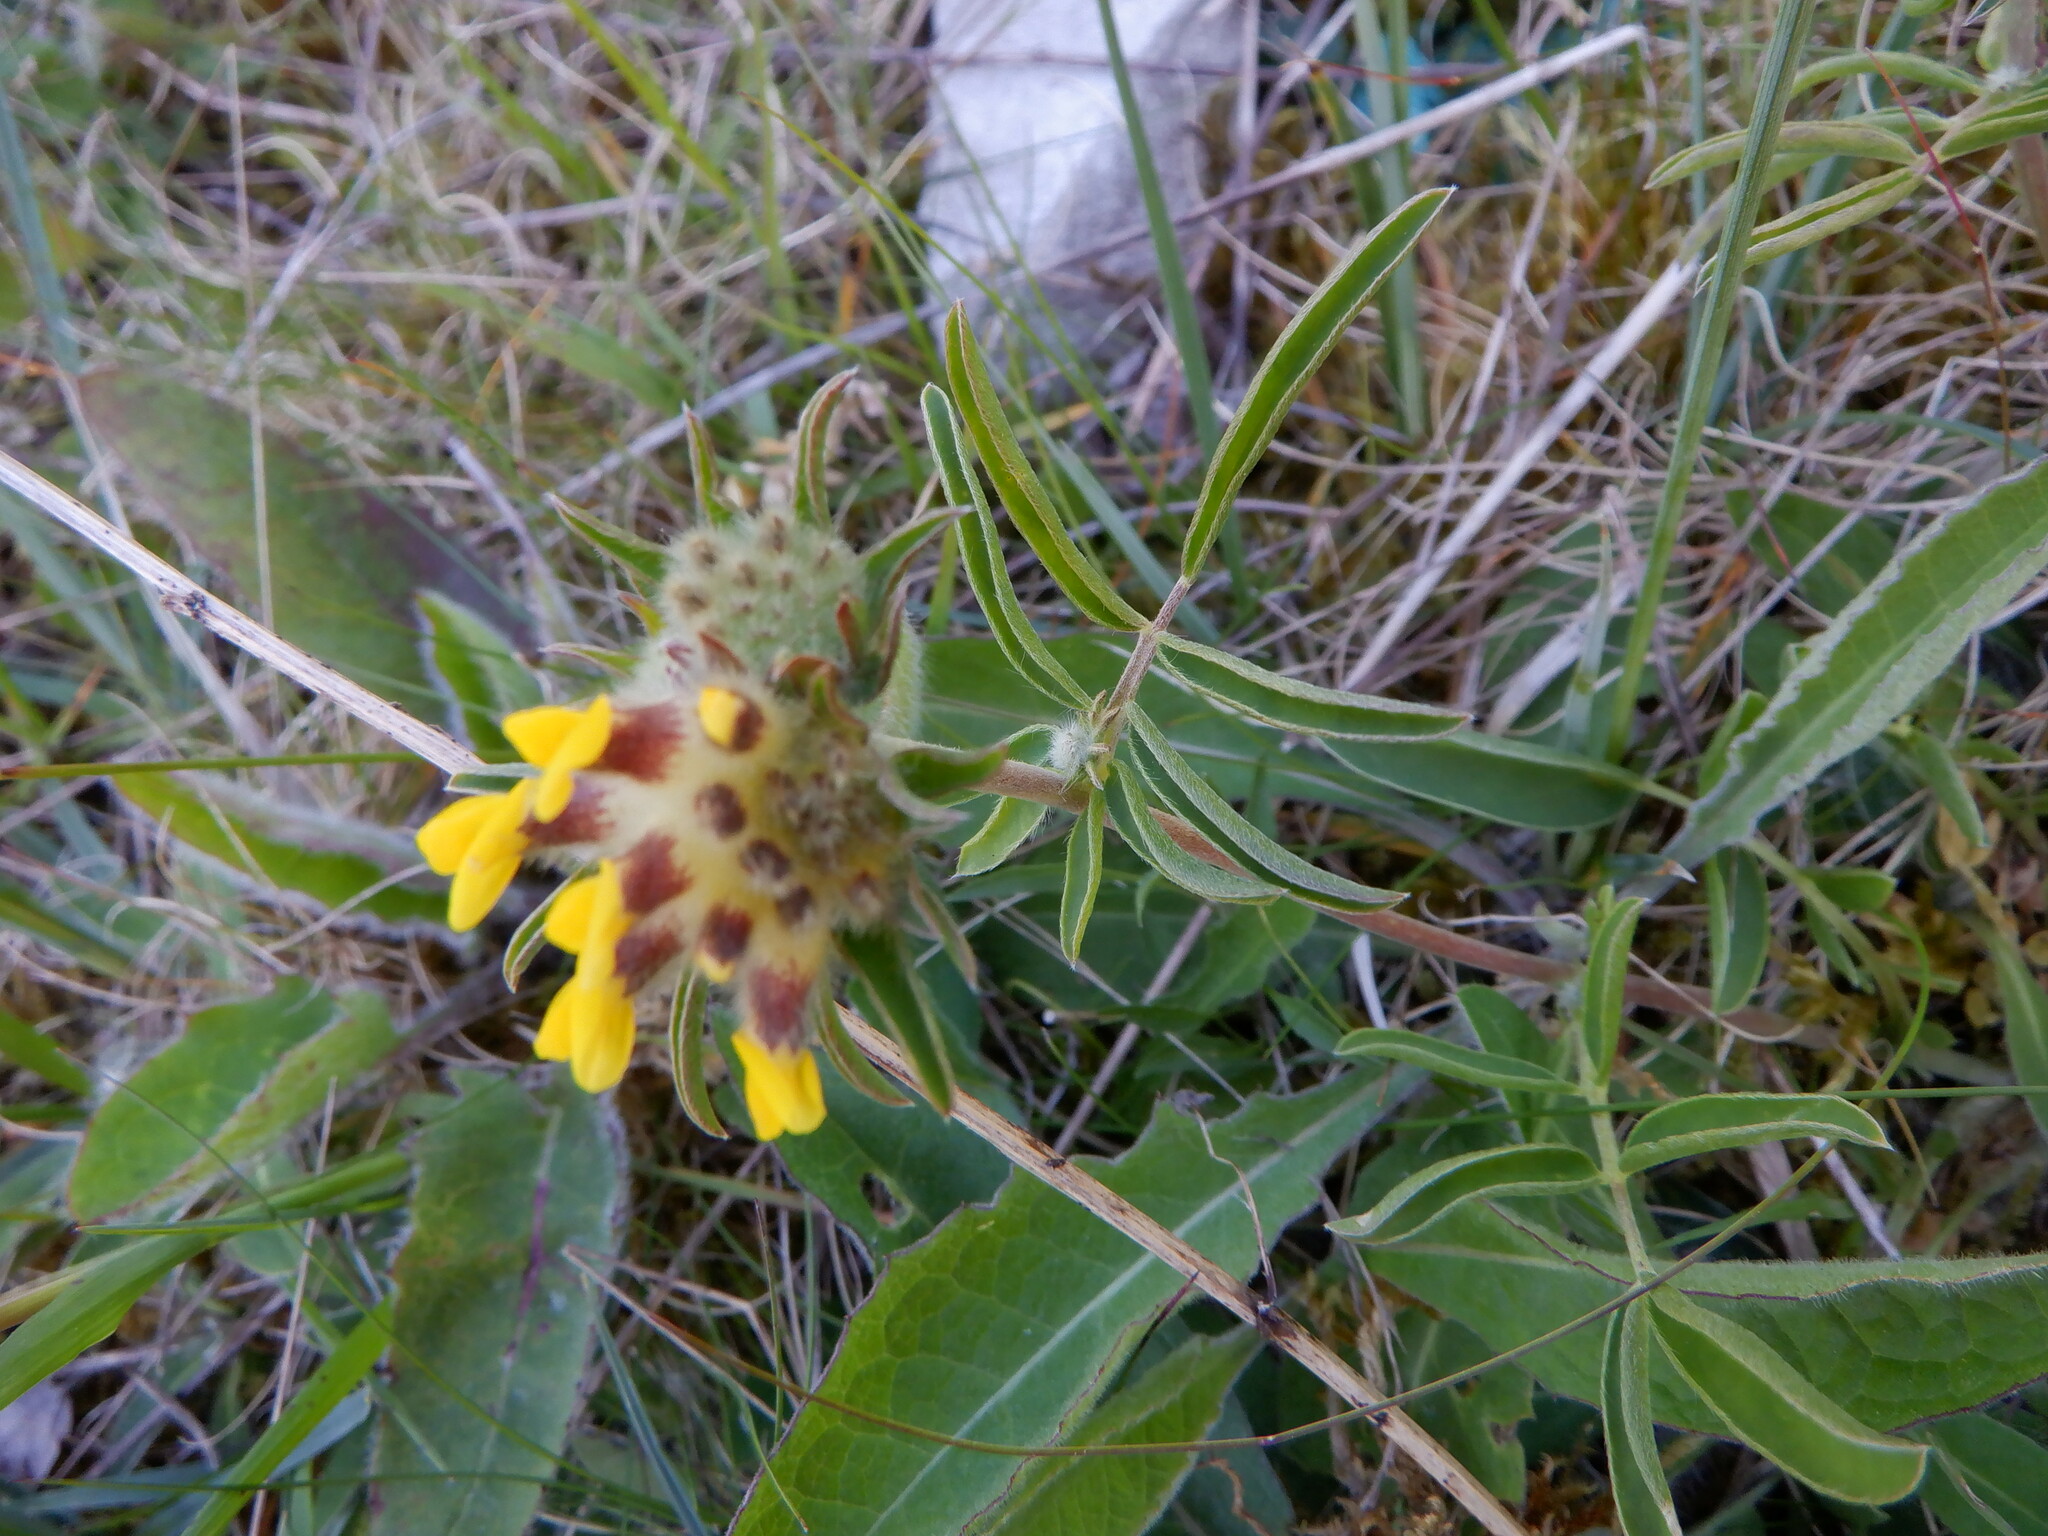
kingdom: Plantae
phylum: Tracheophyta
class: Magnoliopsida
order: Fabales
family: Fabaceae
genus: Anthyllis
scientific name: Anthyllis vulneraria
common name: Kidney vetch
